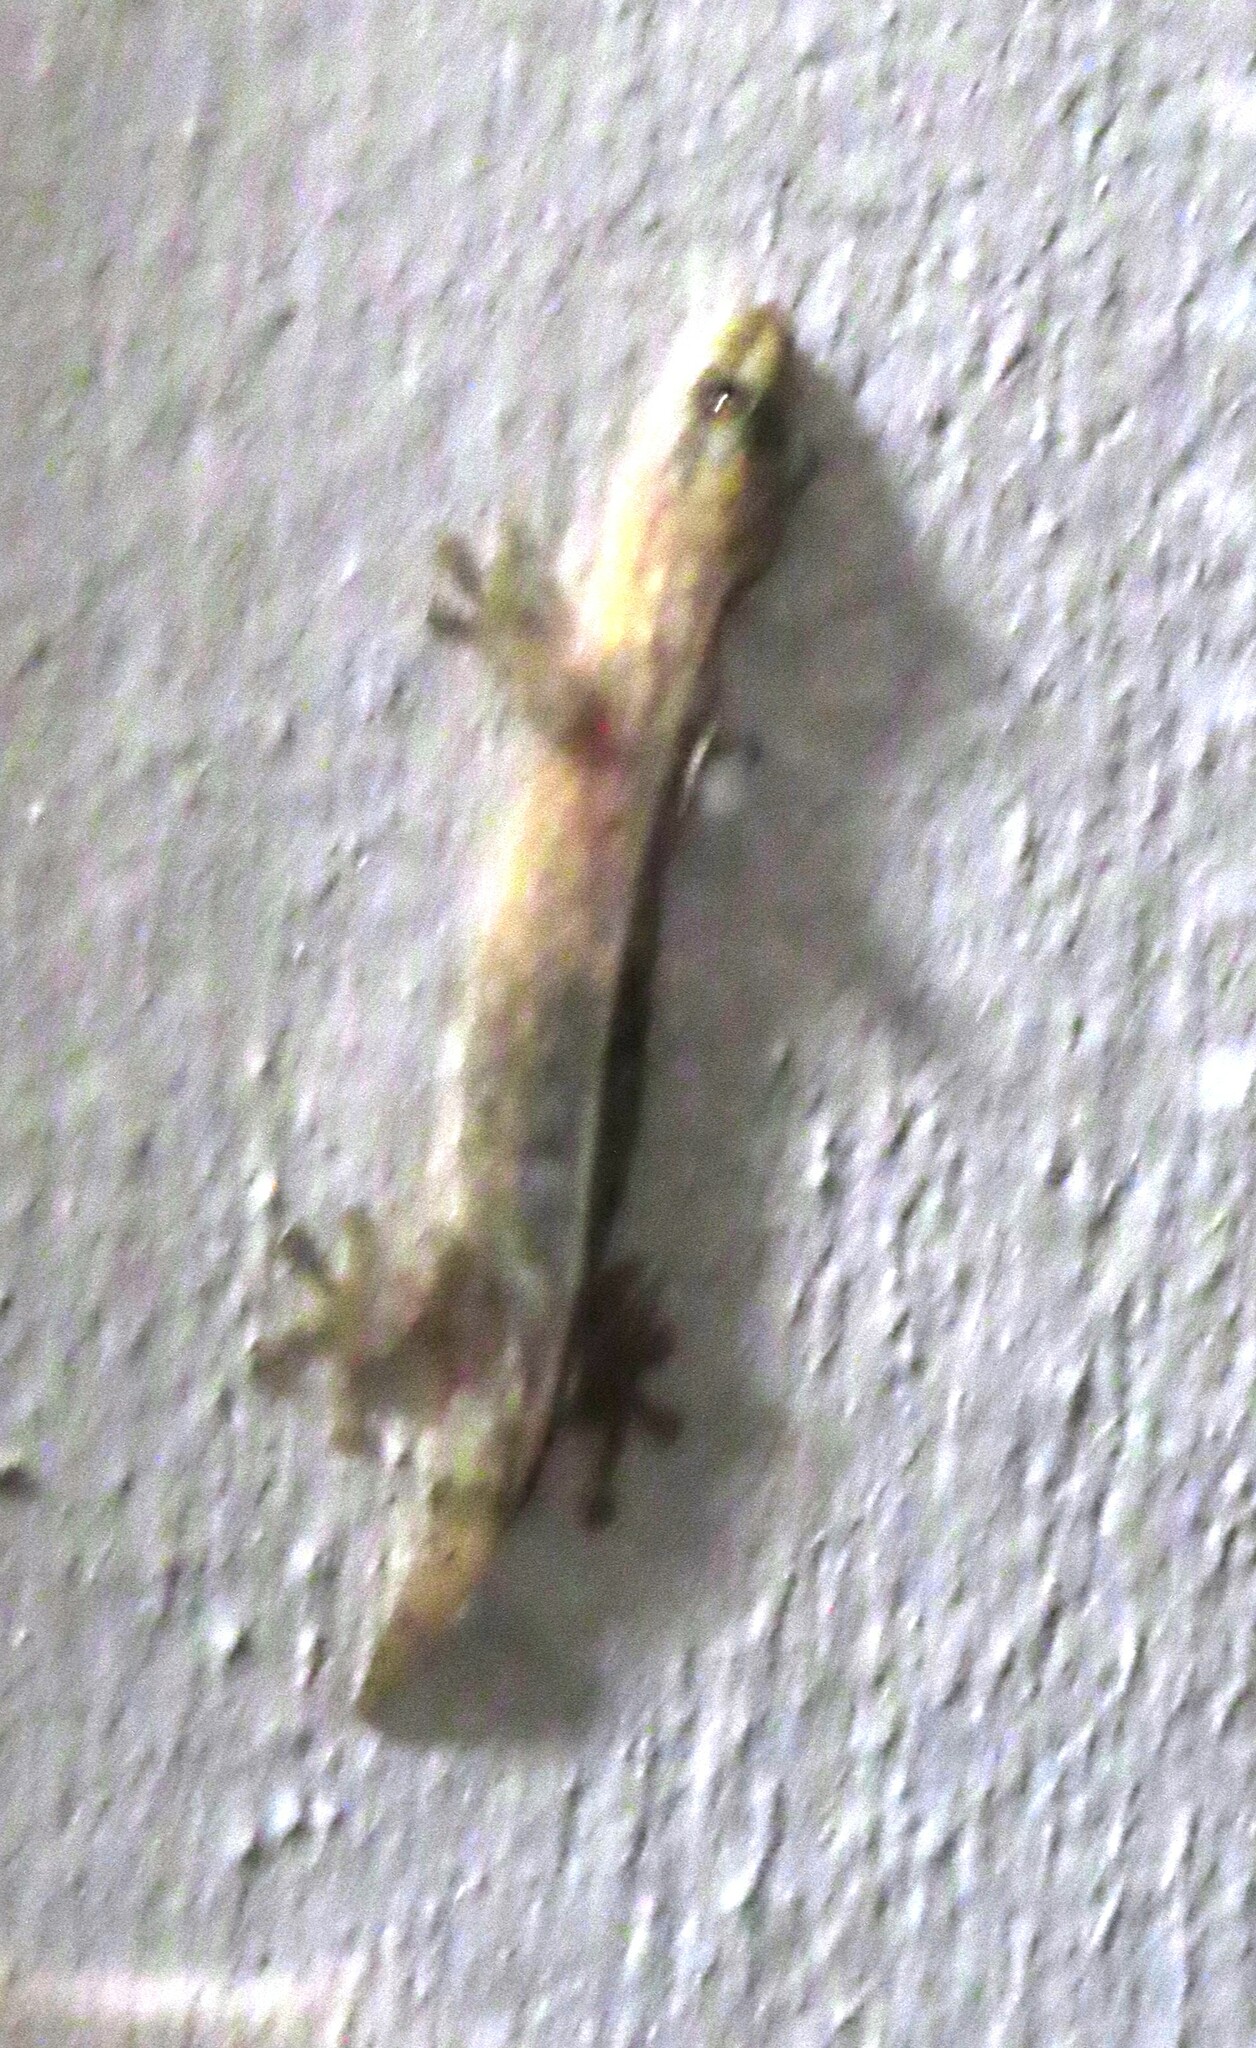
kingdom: Animalia
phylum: Chordata
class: Squamata
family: Gekkonidae
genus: Afrogecko
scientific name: Afrogecko porphyreus
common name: Marbled leaf-toed gecko
